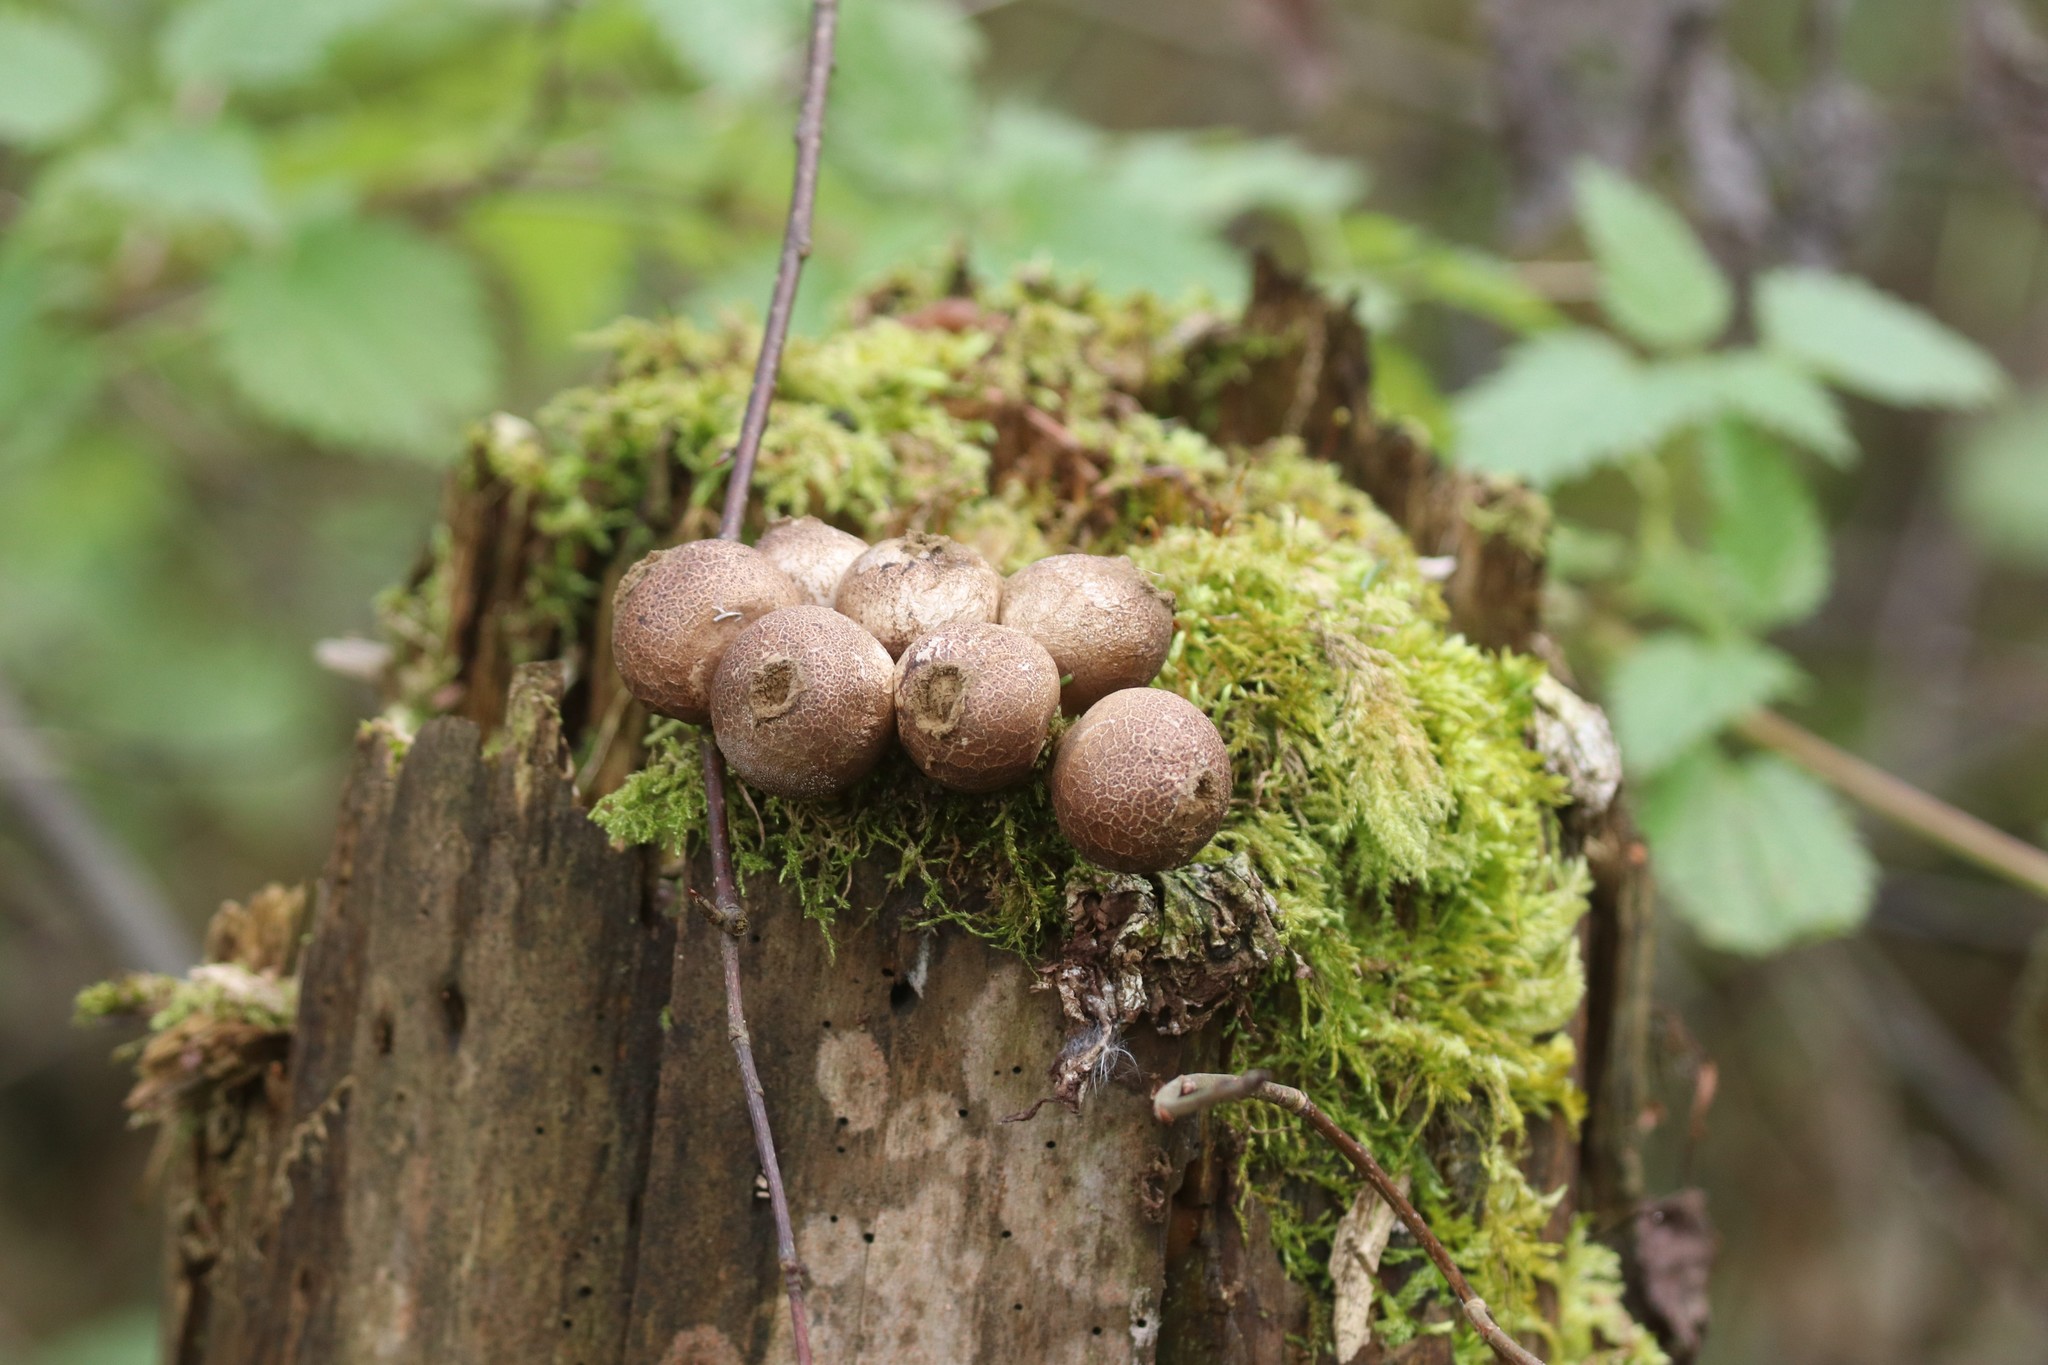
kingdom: Fungi
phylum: Basidiomycota
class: Agaricomycetes
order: Agaricales
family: Lycoperdaceae
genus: Apioperdon
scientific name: Apioperdon pyriforme
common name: Pear-shaped puffball
